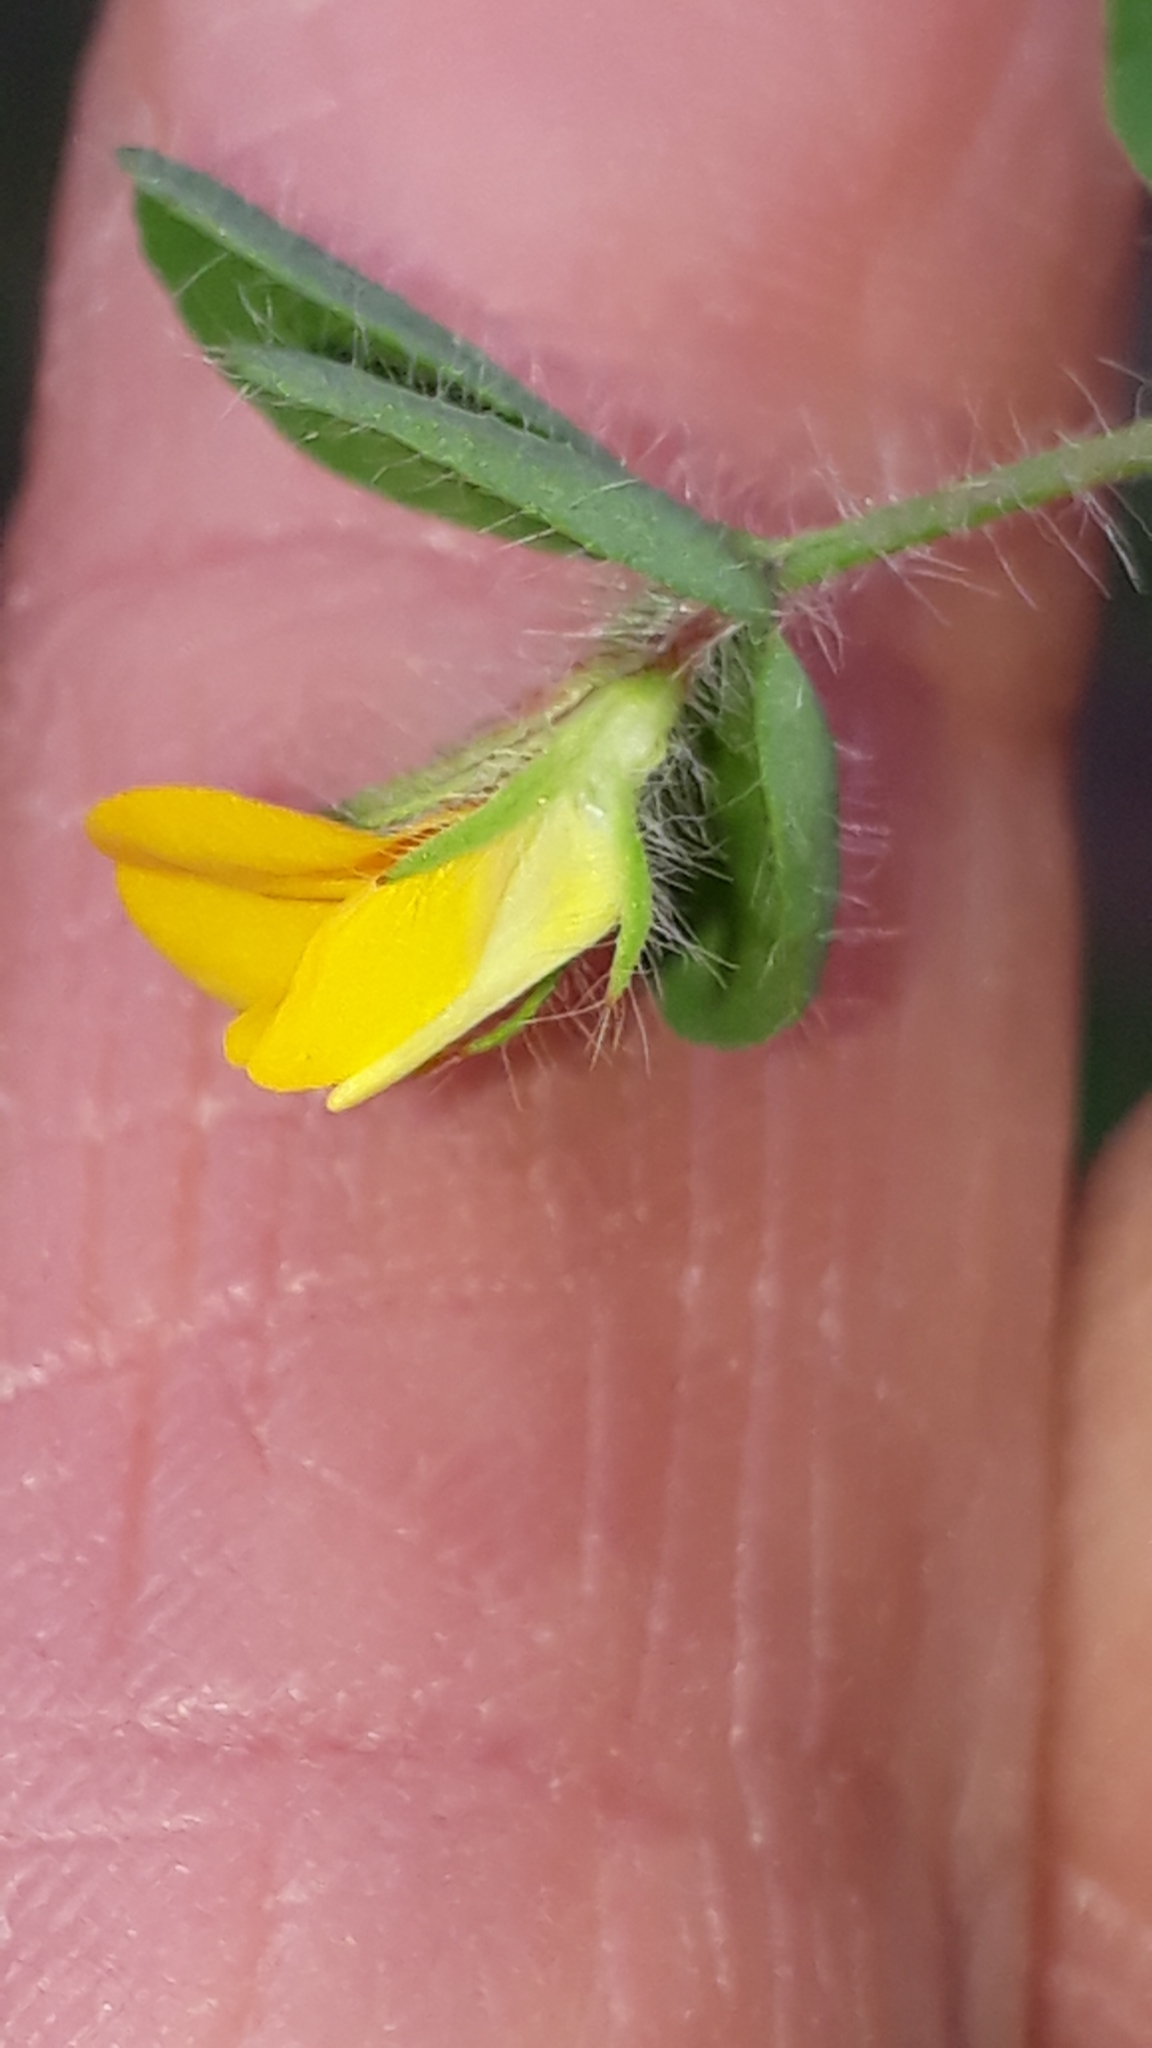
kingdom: Plantae
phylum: Tracheophyta
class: Magnoliopsida
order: Fabales
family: Fabaceae
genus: Lotus
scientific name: Lotus angustissimus
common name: Slender bird's-foot trefoil
